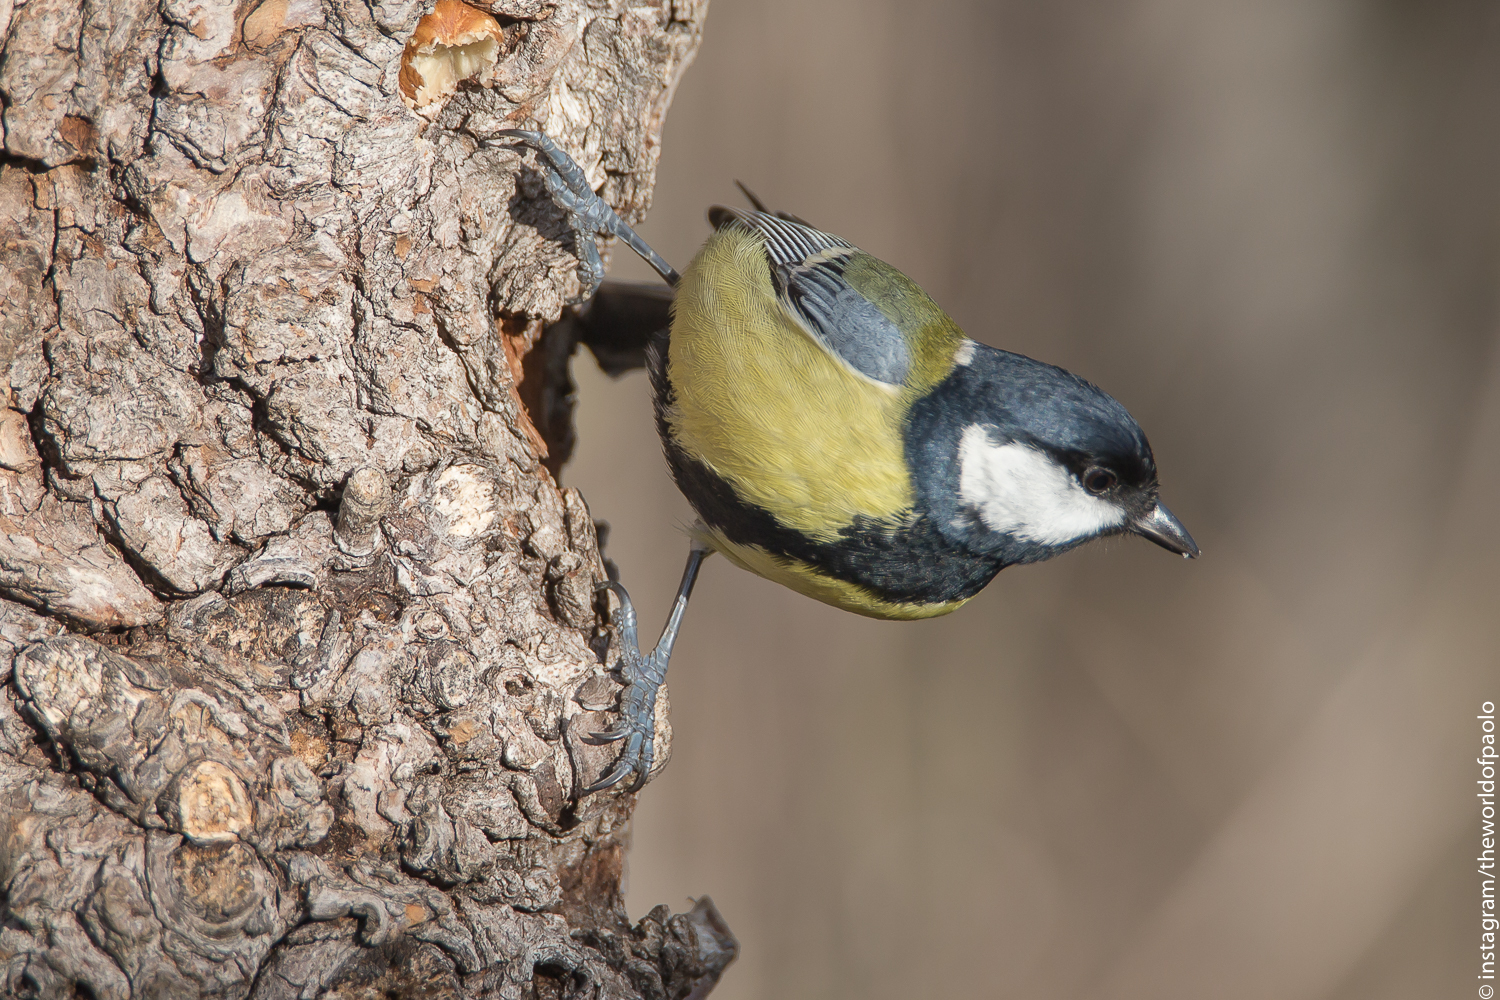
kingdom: Animalia
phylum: Chordata
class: Aves
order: Passeriformes
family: Paridae
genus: Parus
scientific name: Parus major
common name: Great tit
